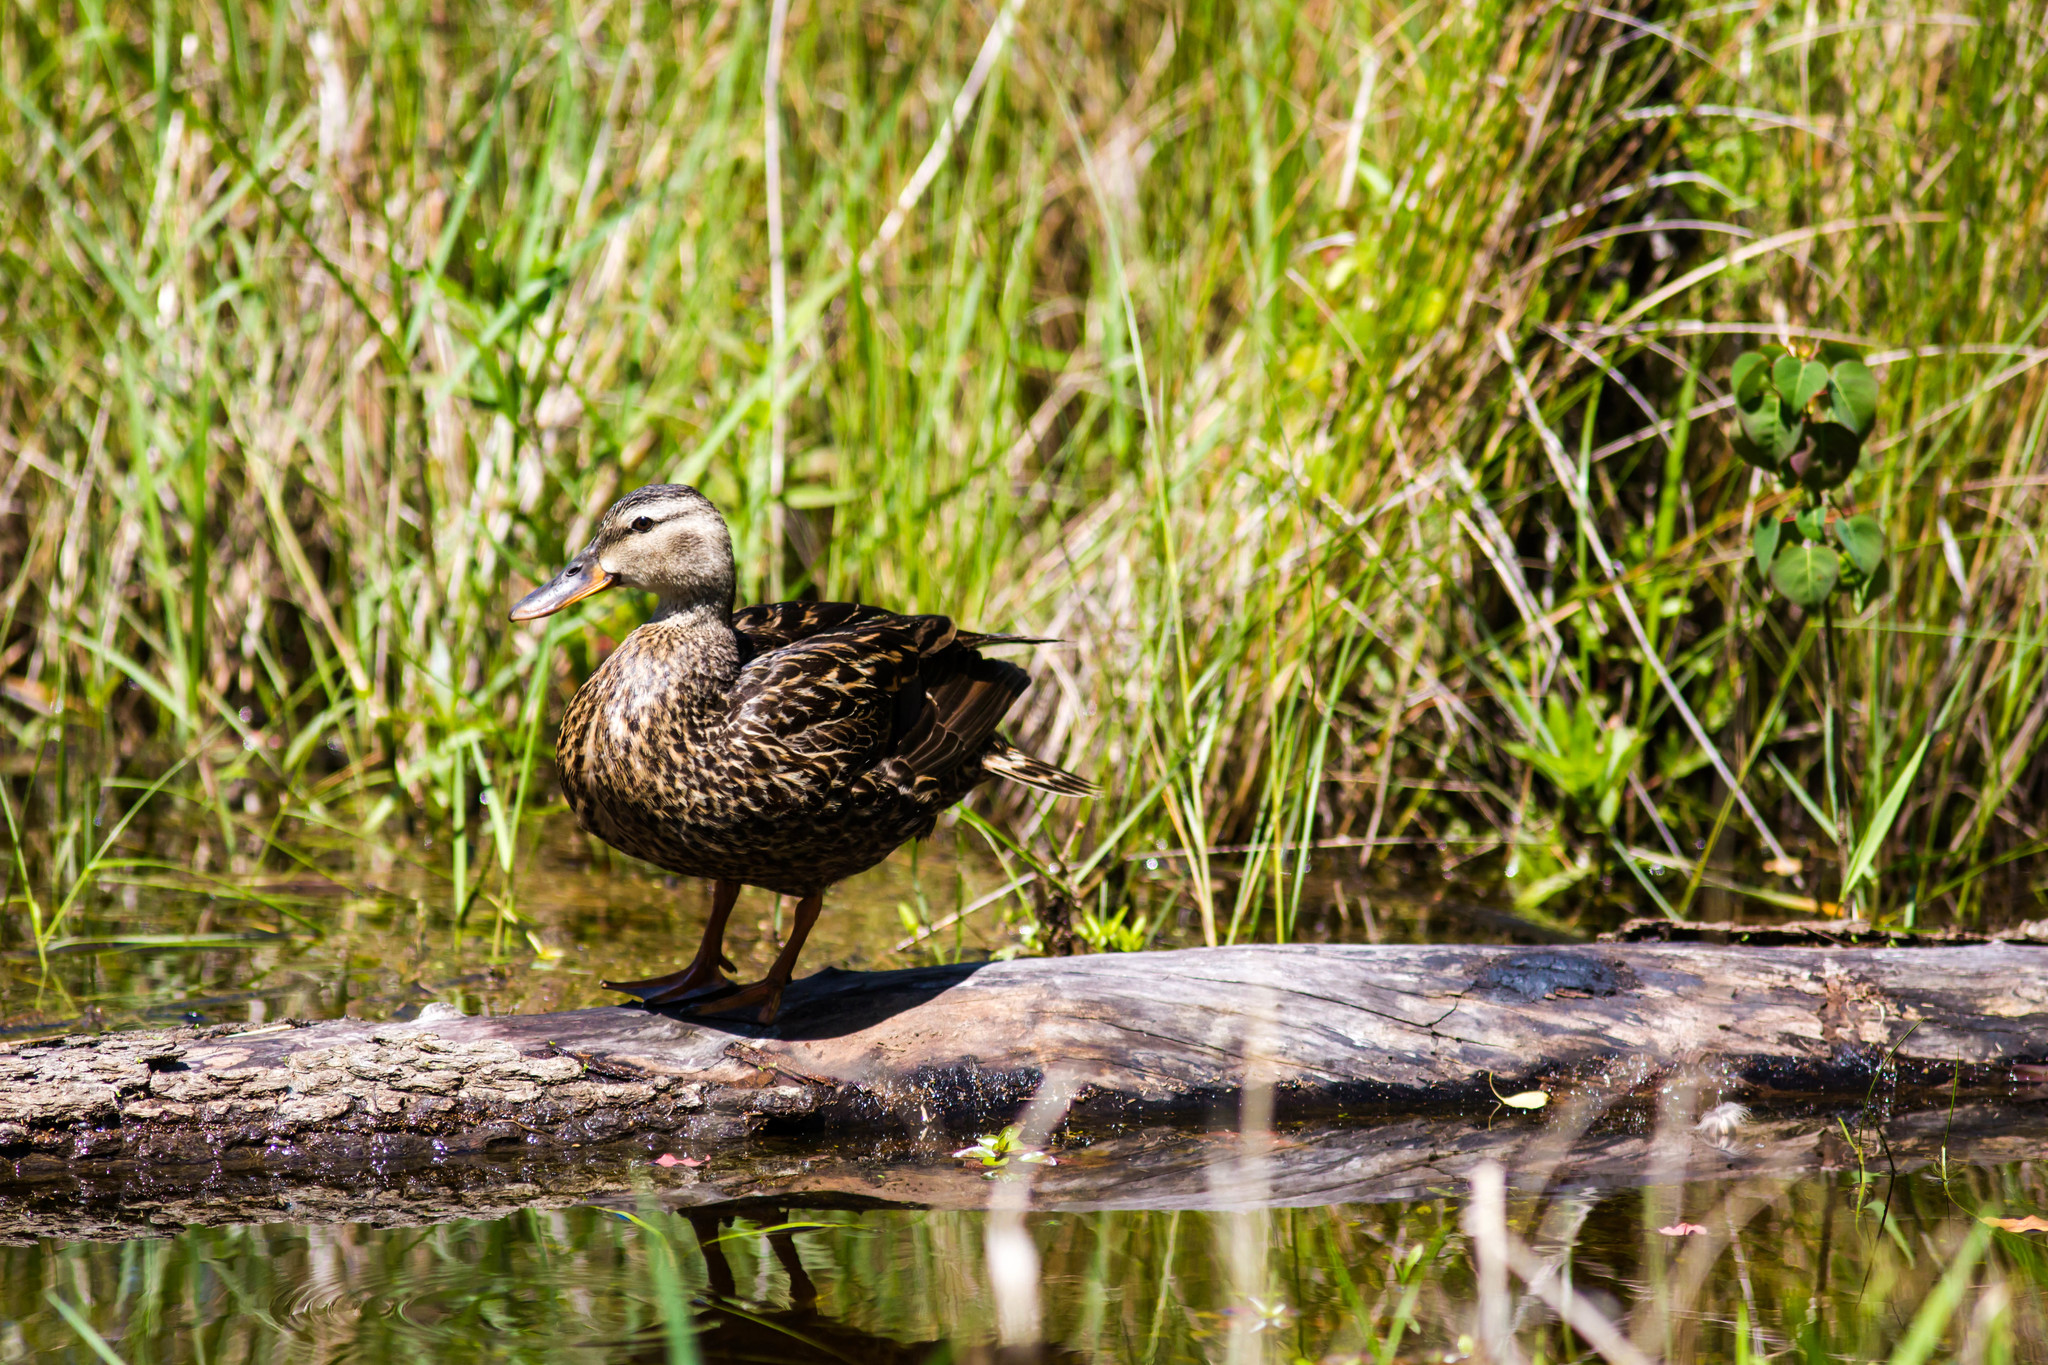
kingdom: Animalia
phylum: Chordata
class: Aves
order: Anseriformes
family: Anatidae
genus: Anas
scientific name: Anas platyrhynchos
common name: Mallard
